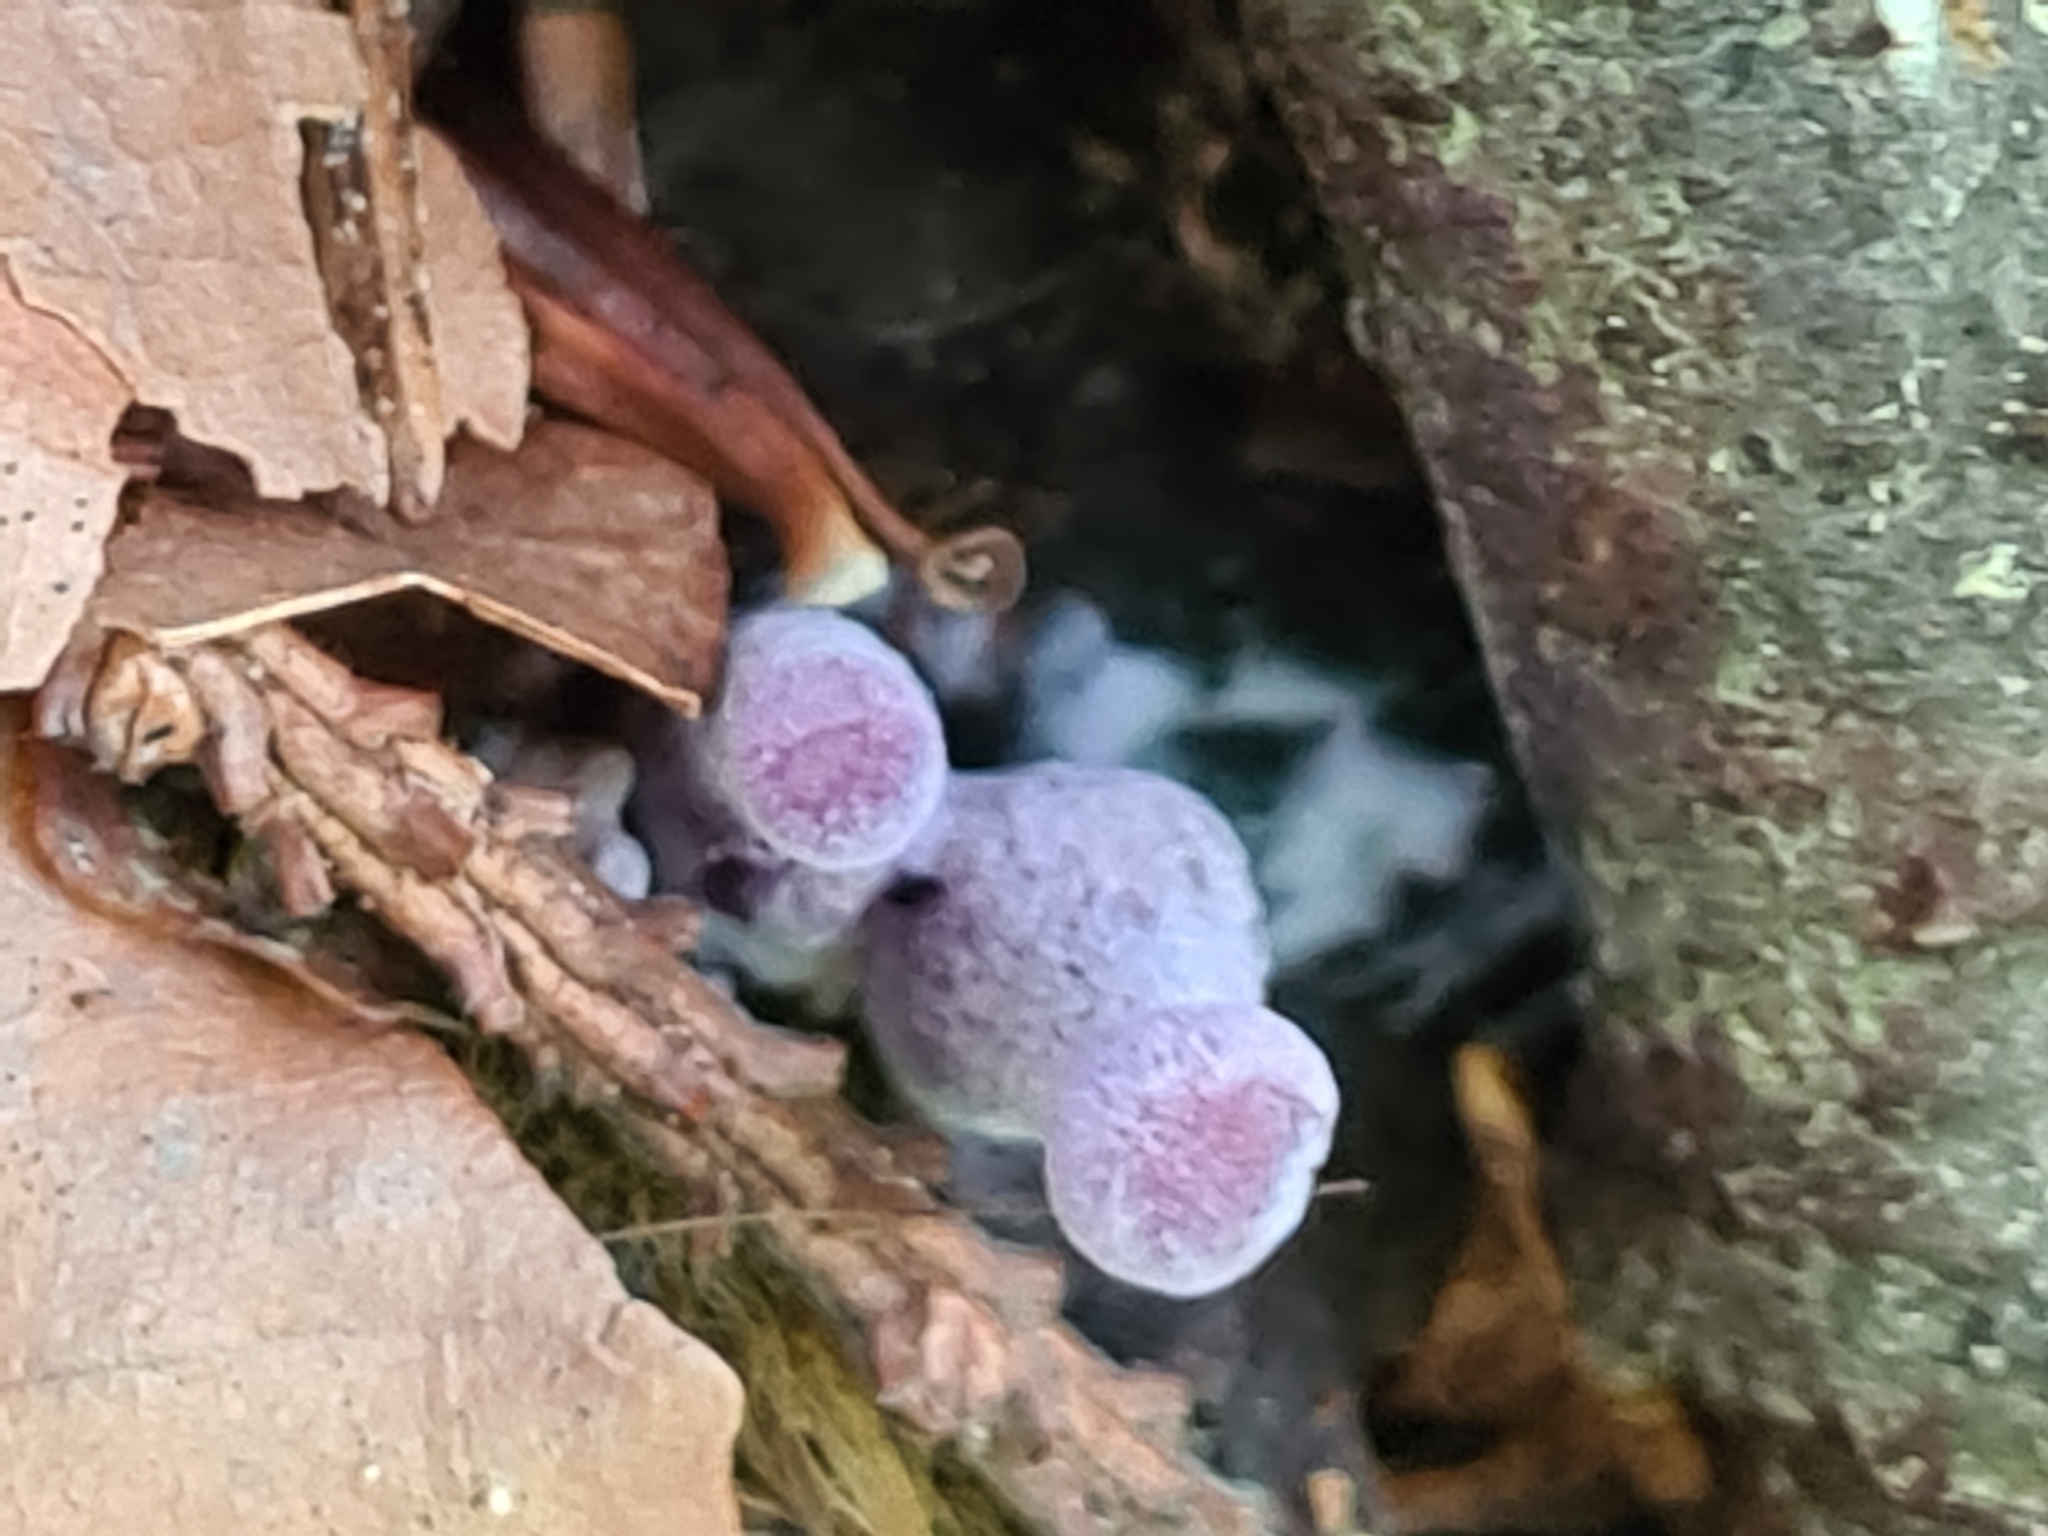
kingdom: Fungi
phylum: Basidiomycota
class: Agaricomycetes
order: Agaricales
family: Hydnangiaceae
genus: Laccaria
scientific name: Laccaria amethystina
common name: Amethyst deceiver
